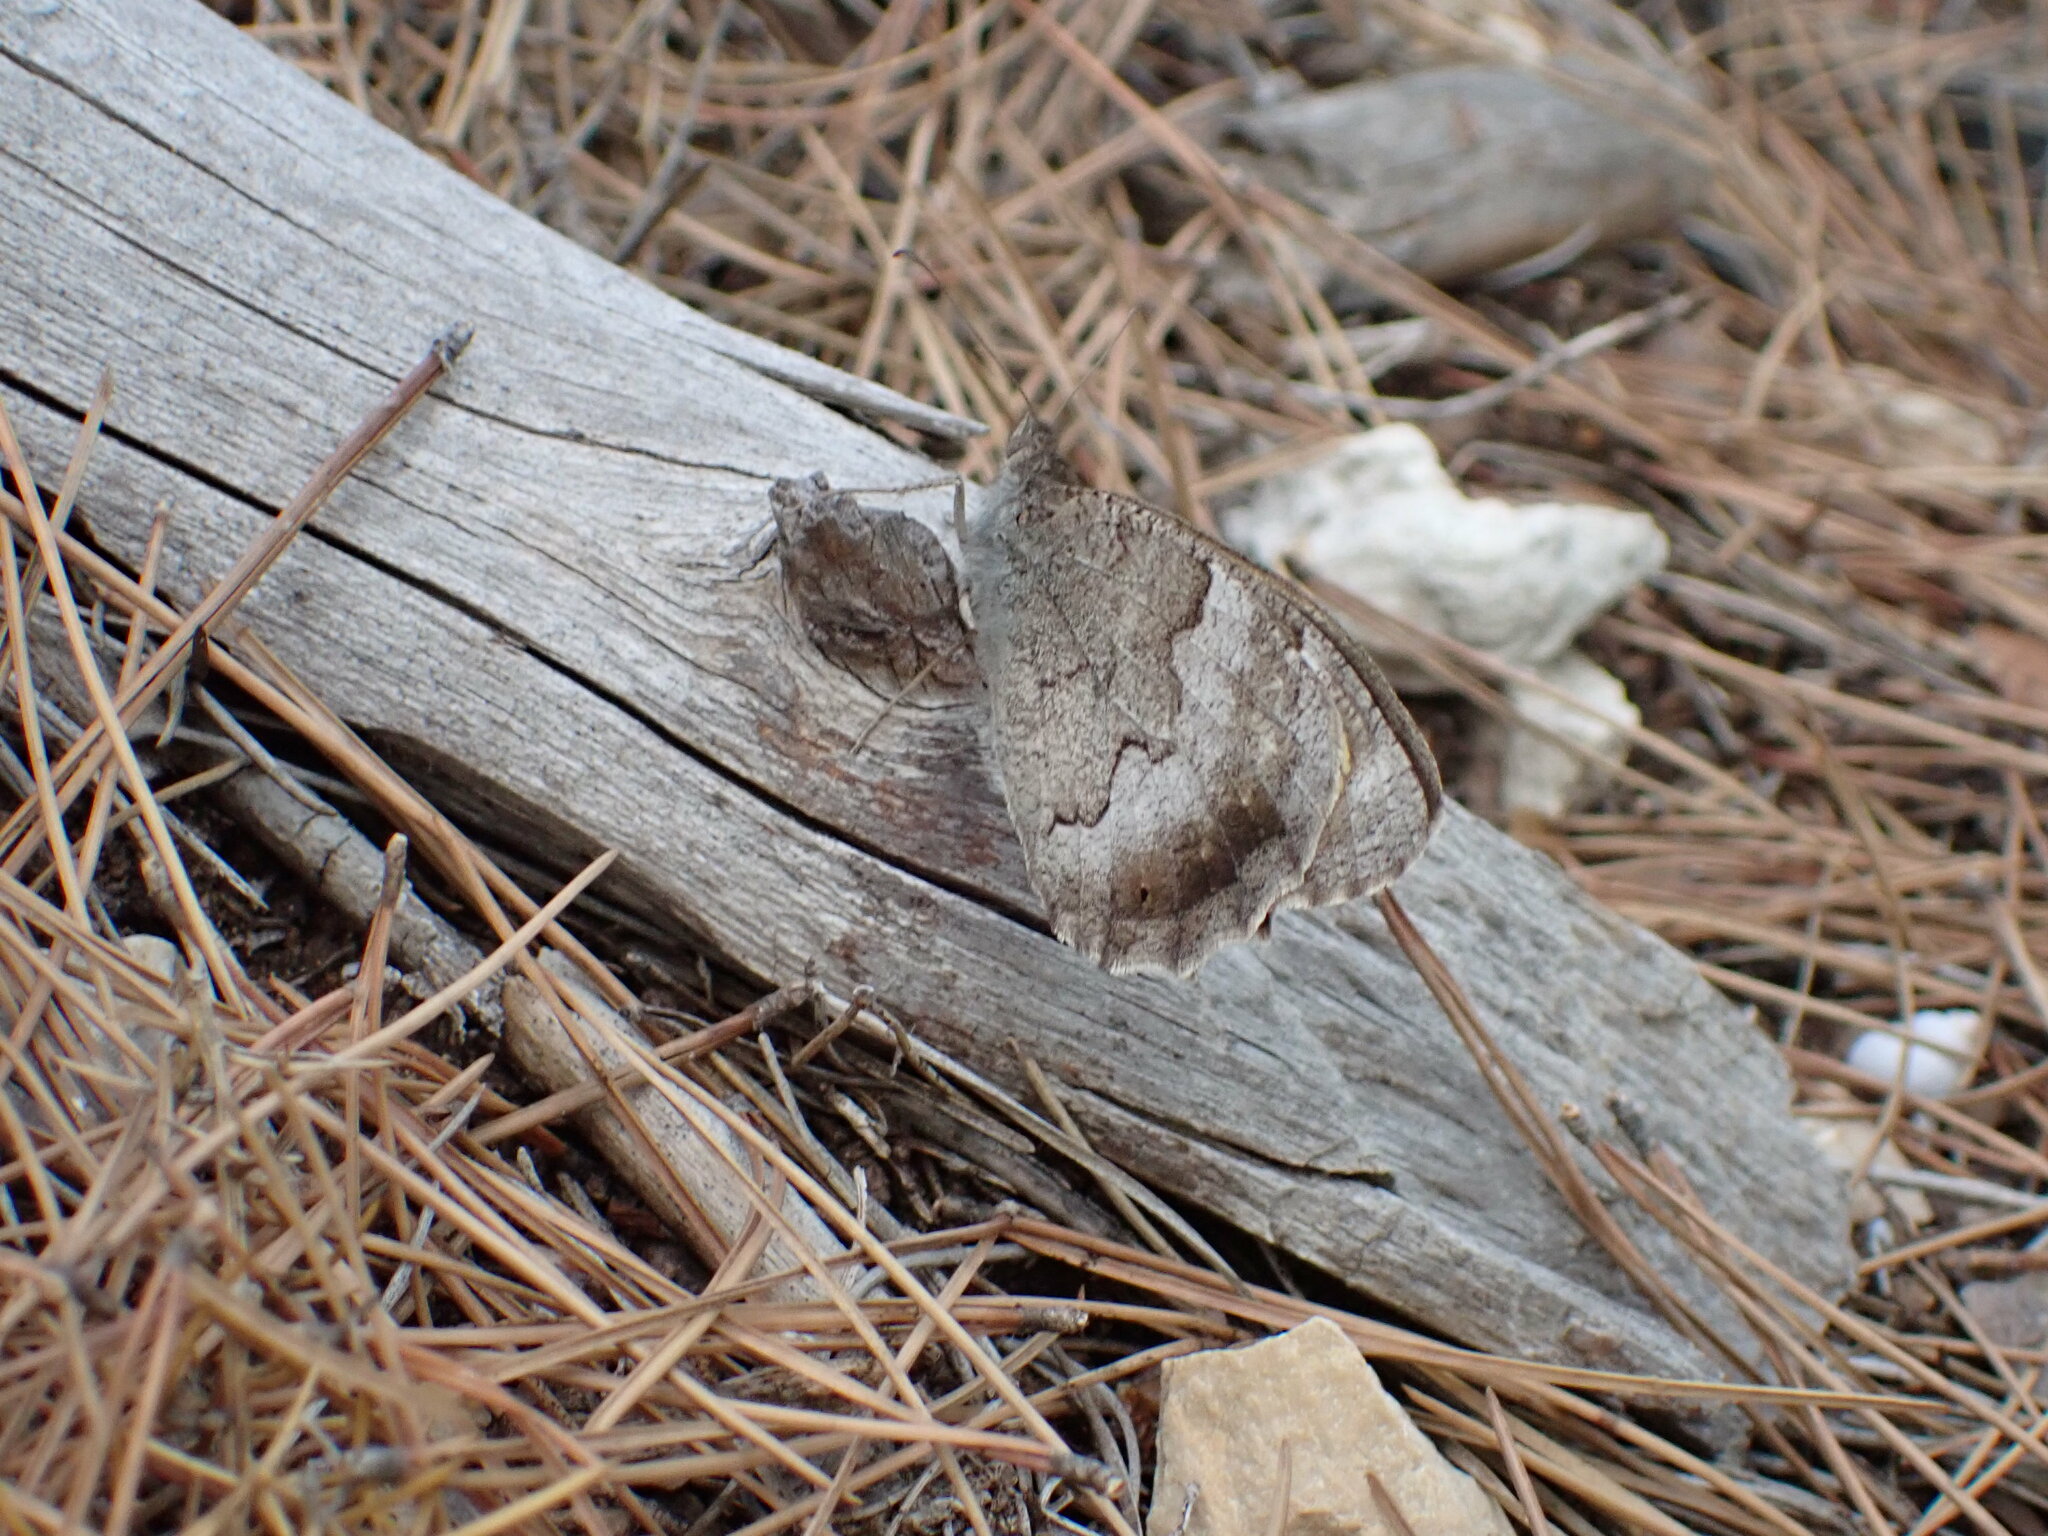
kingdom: Animalia
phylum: Arthropoda
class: Insecta
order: Lepidoptera
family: Nymphalidae
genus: Hipparchia
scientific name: Hipparchia statilinus
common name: Tree grayling
